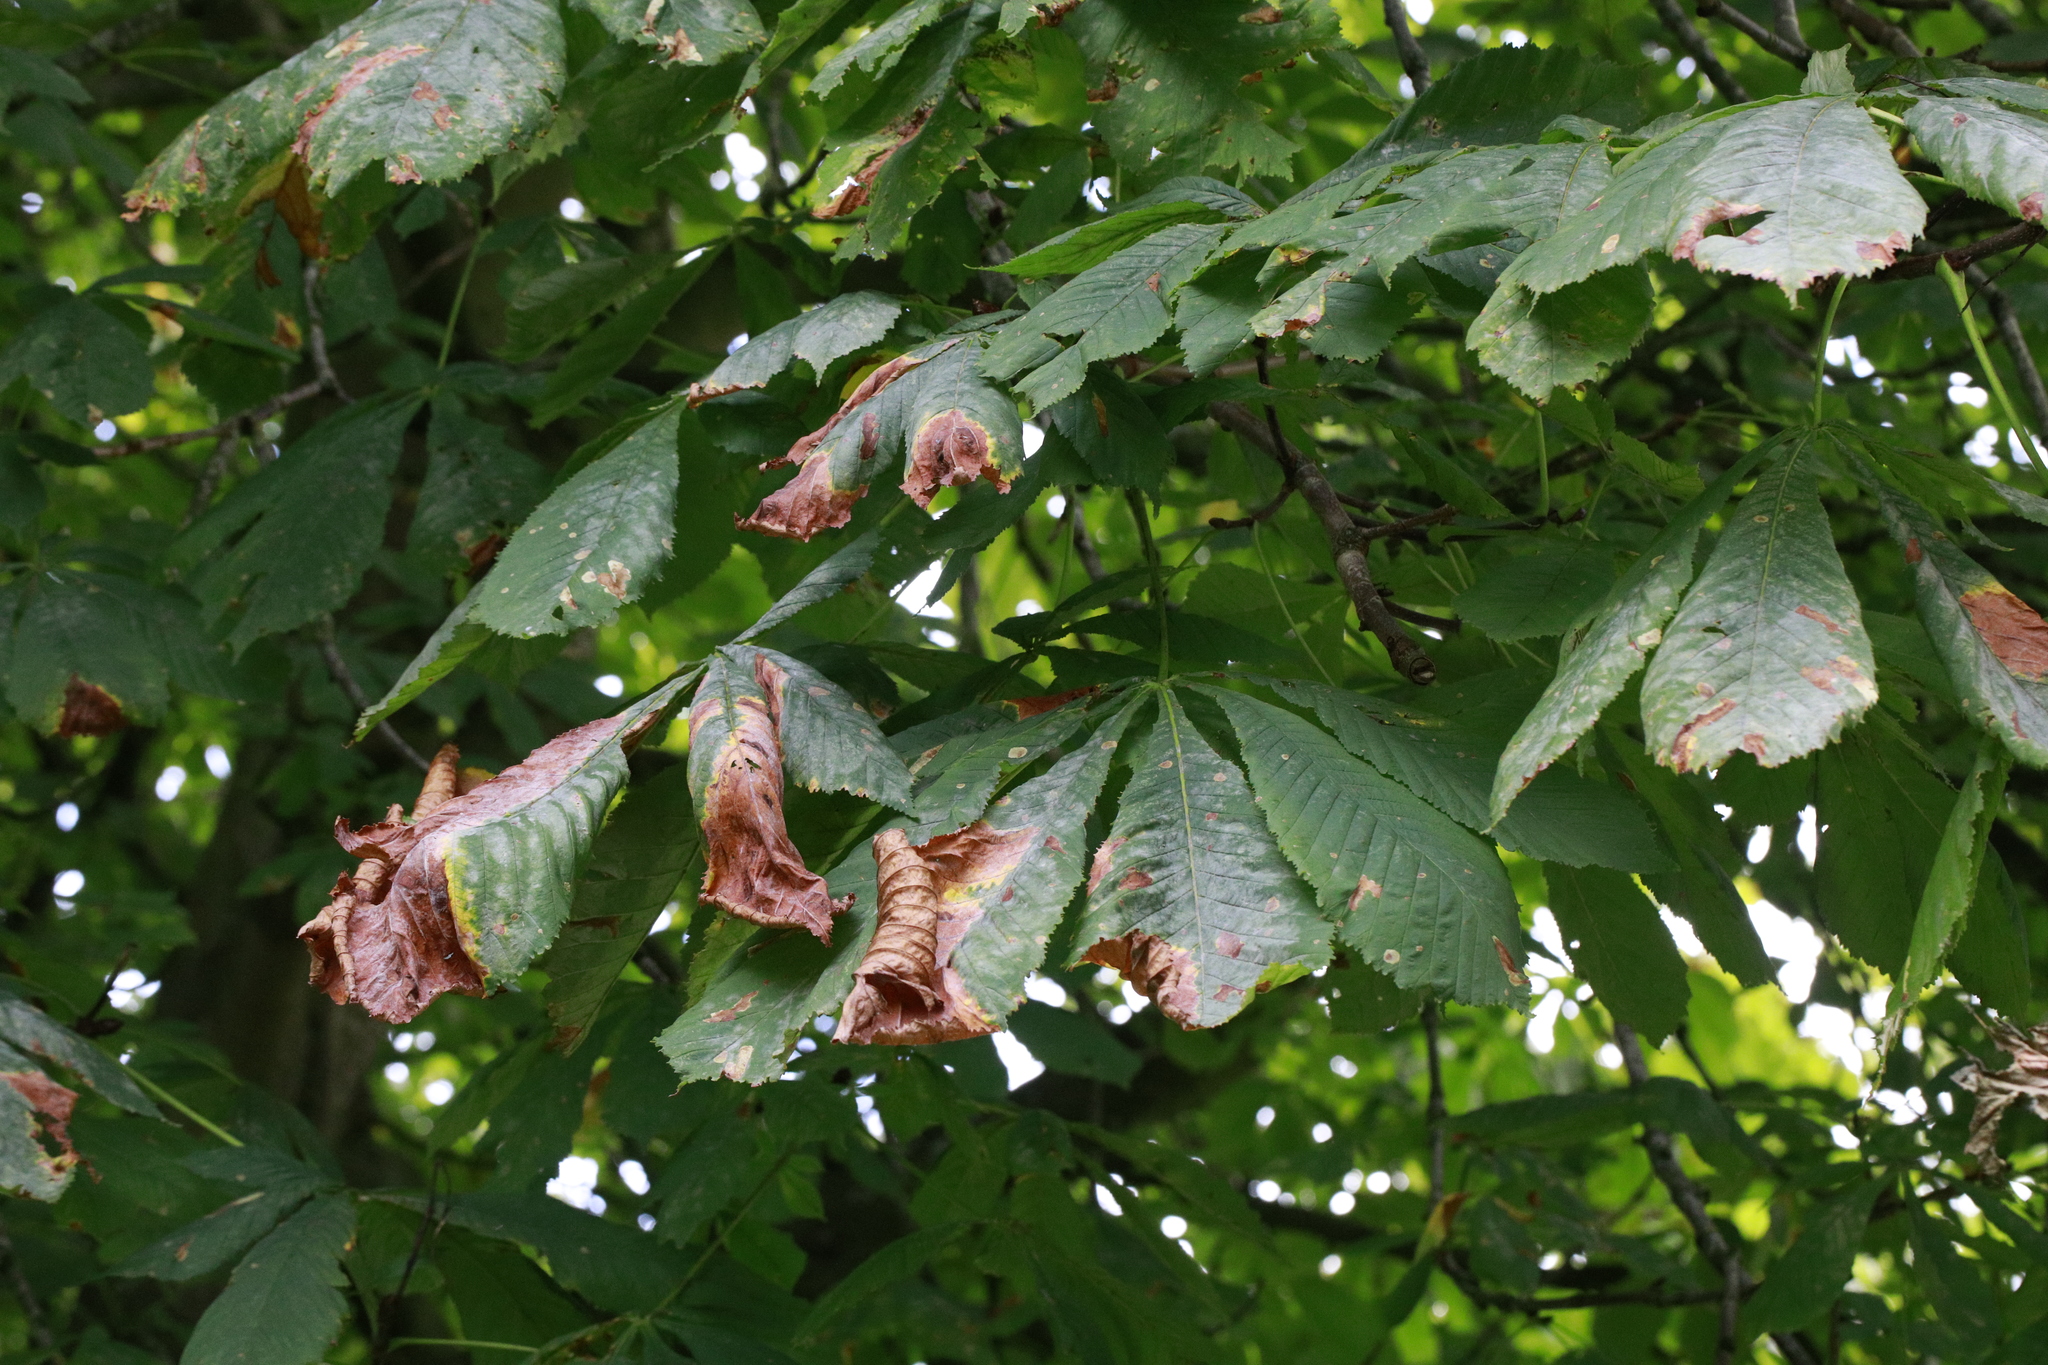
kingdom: Fungi
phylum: Ascomycota
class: Dothideomycetes
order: Botryosphaeriales
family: Phyllostictaceae
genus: Phyllosticta
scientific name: Phyllosticta paviae
